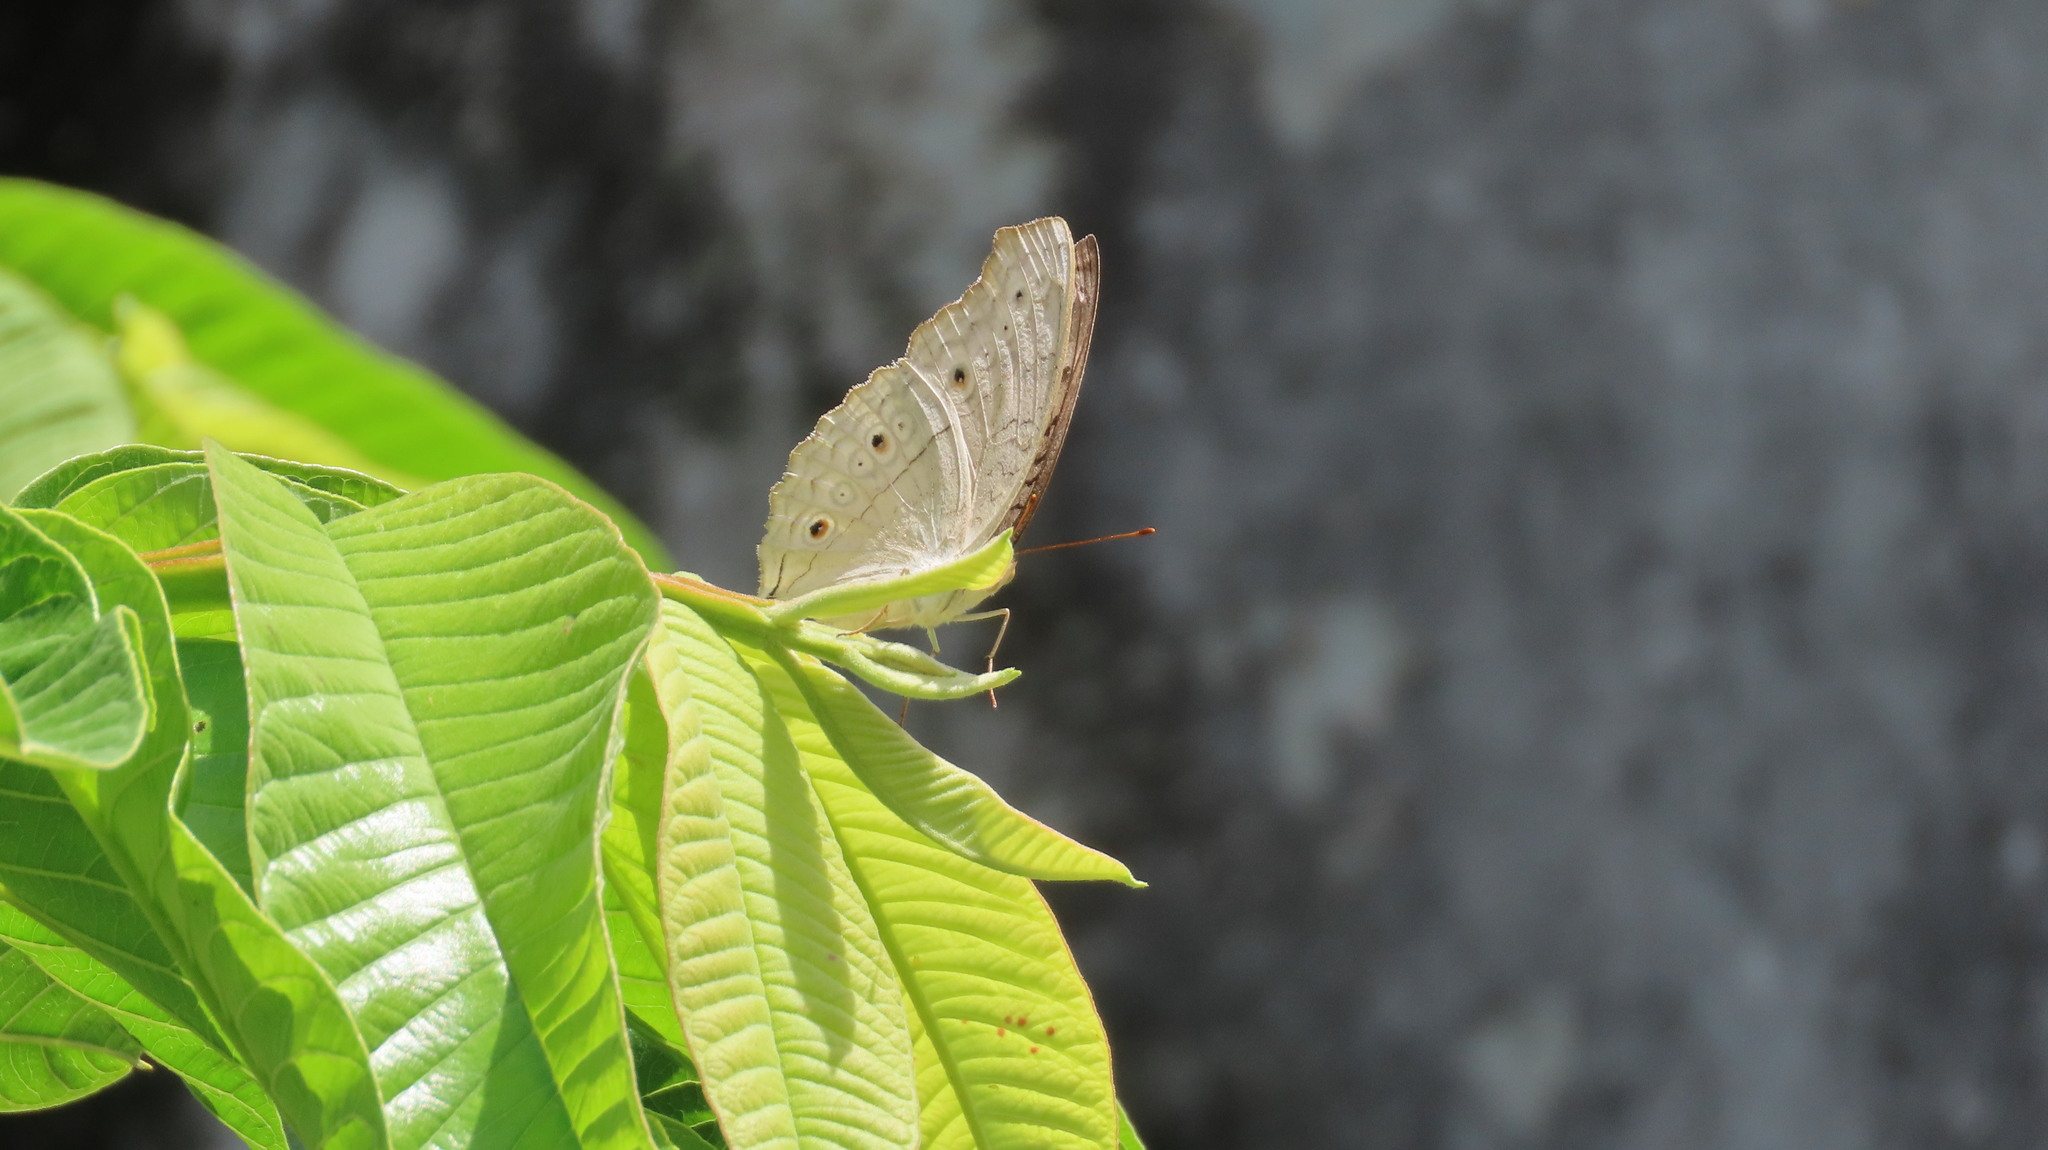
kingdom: Animalia
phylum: Arthropoda
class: Insecta
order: Lepidoptera
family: Nymphalidae
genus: Junonia
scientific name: Junonia atlites
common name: Grey pansy
